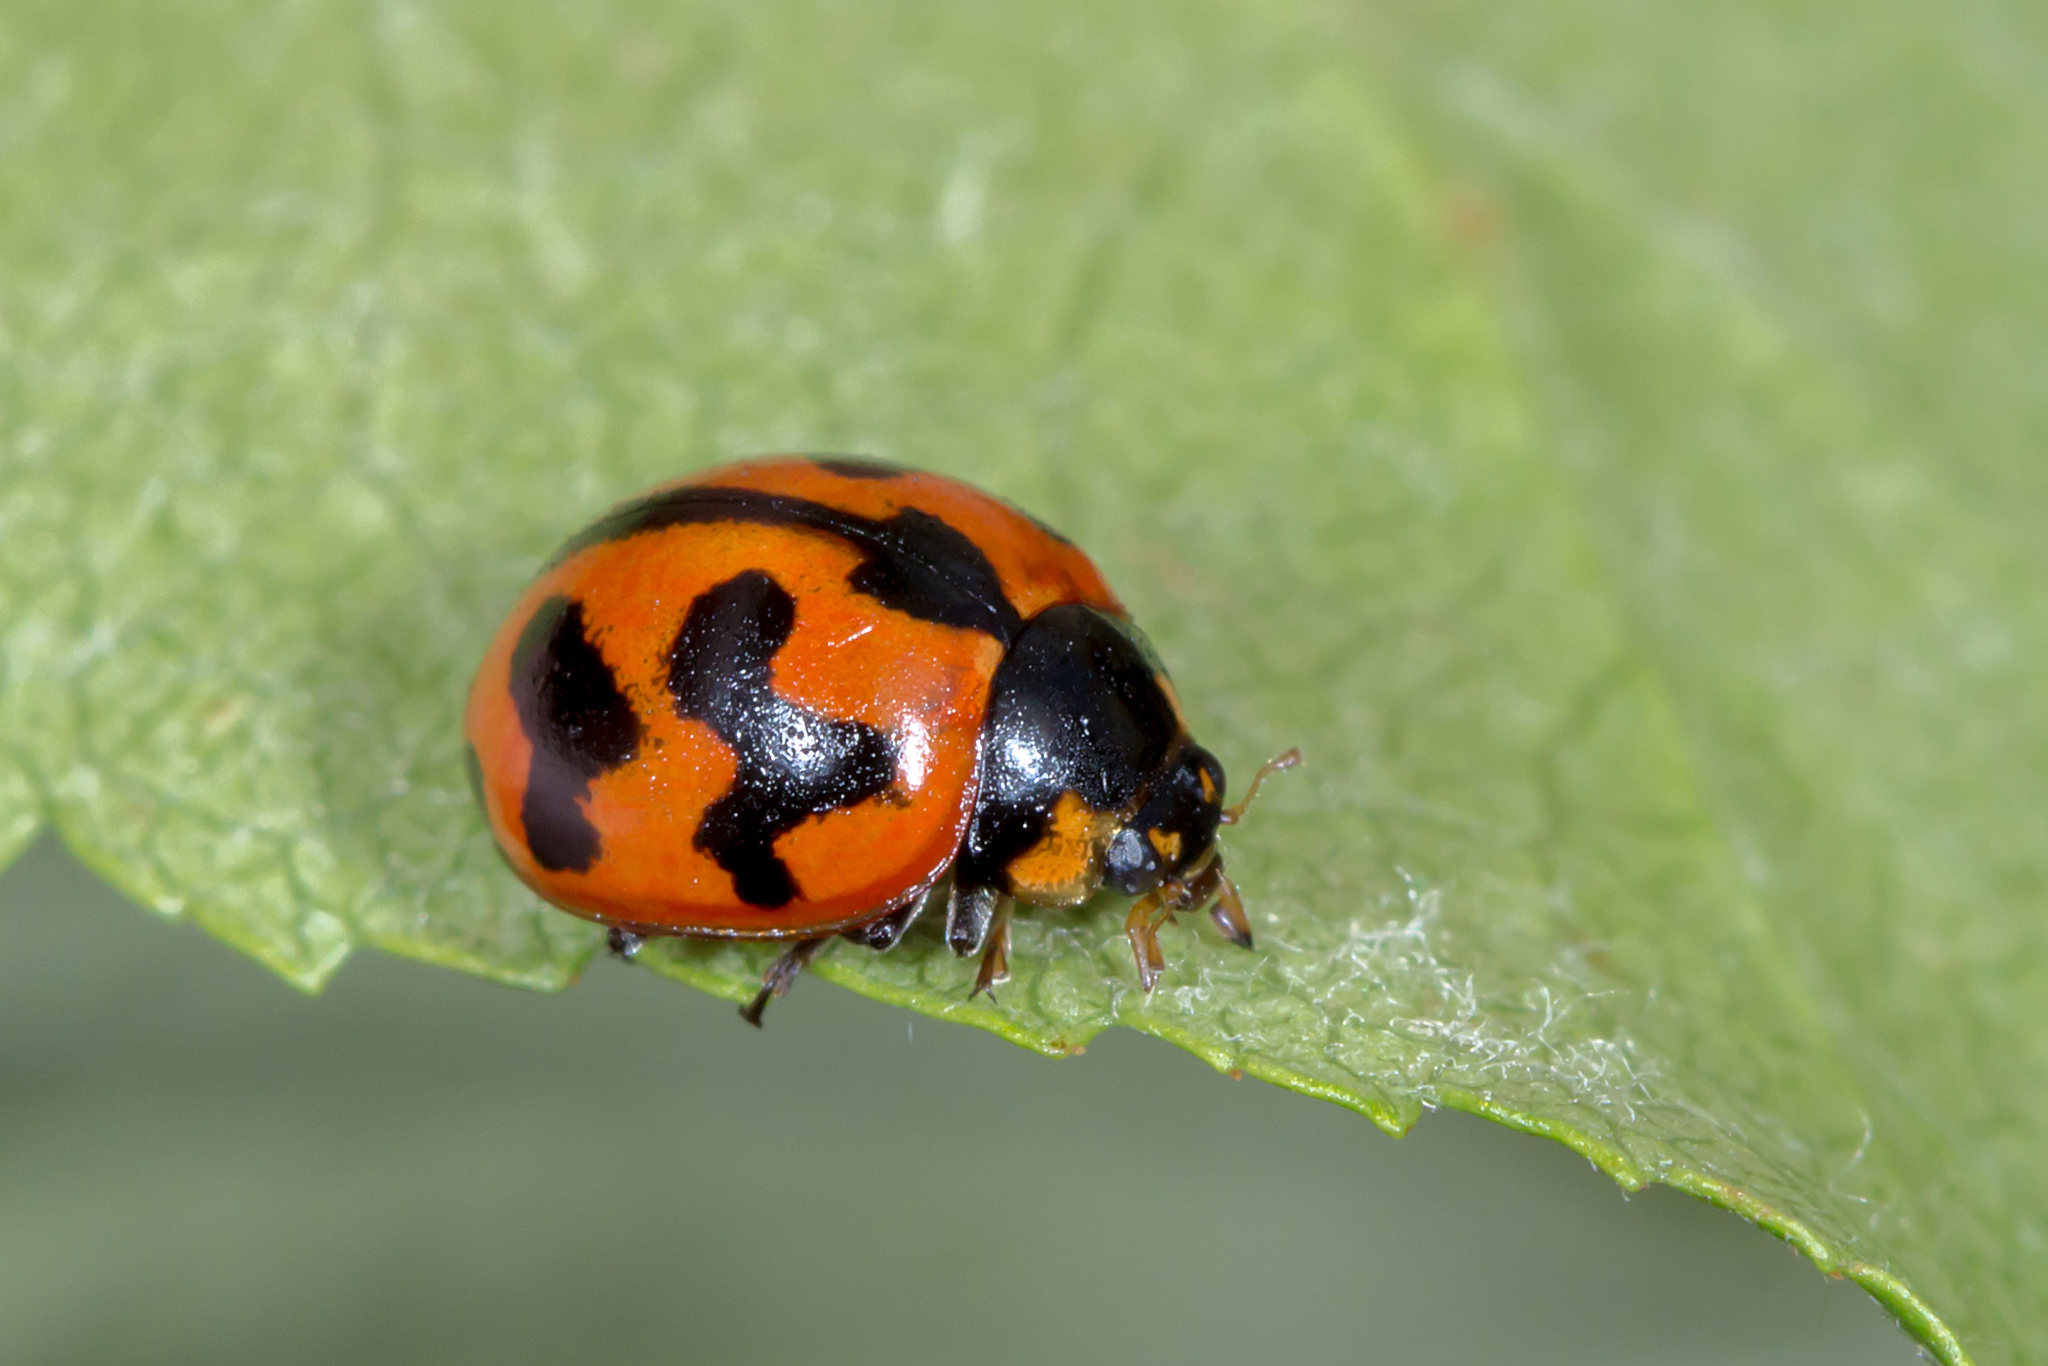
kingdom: Animalia
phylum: Arthropoda
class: Insecta
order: Coleoptera
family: Coccinellidae
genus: Coccinella
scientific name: Coccinella transversalis
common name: Transverse lady beetle
